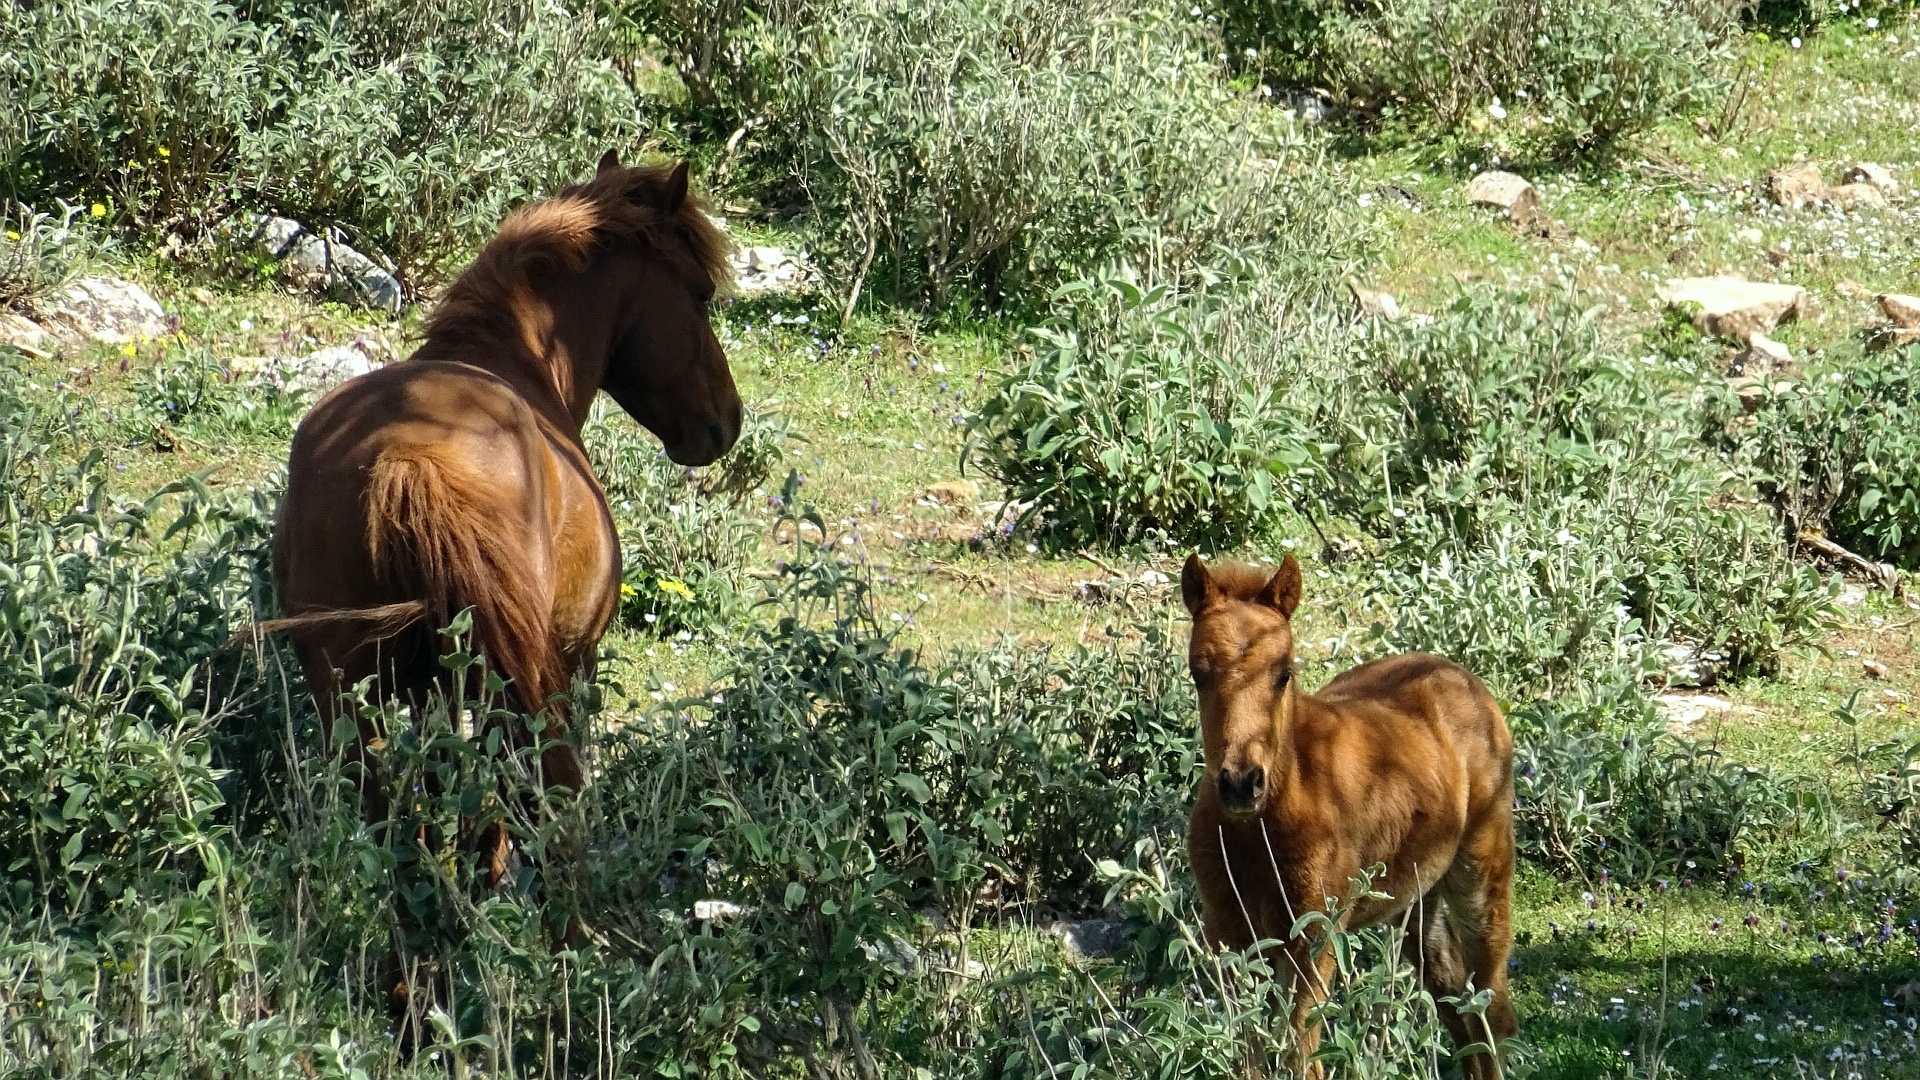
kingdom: Animalia
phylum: Chordata
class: Mammalia
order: Perissodactyla
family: Equidae
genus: Equus
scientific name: Equus caballus
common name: Horse
